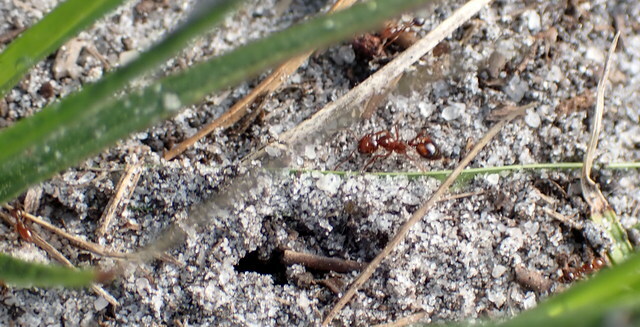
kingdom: Animalia
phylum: Arthropoda
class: Insecta
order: Hymenoptera
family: Formicidae
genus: Solenopsis
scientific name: Solenopsis invicta
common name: Red imported fire ant
